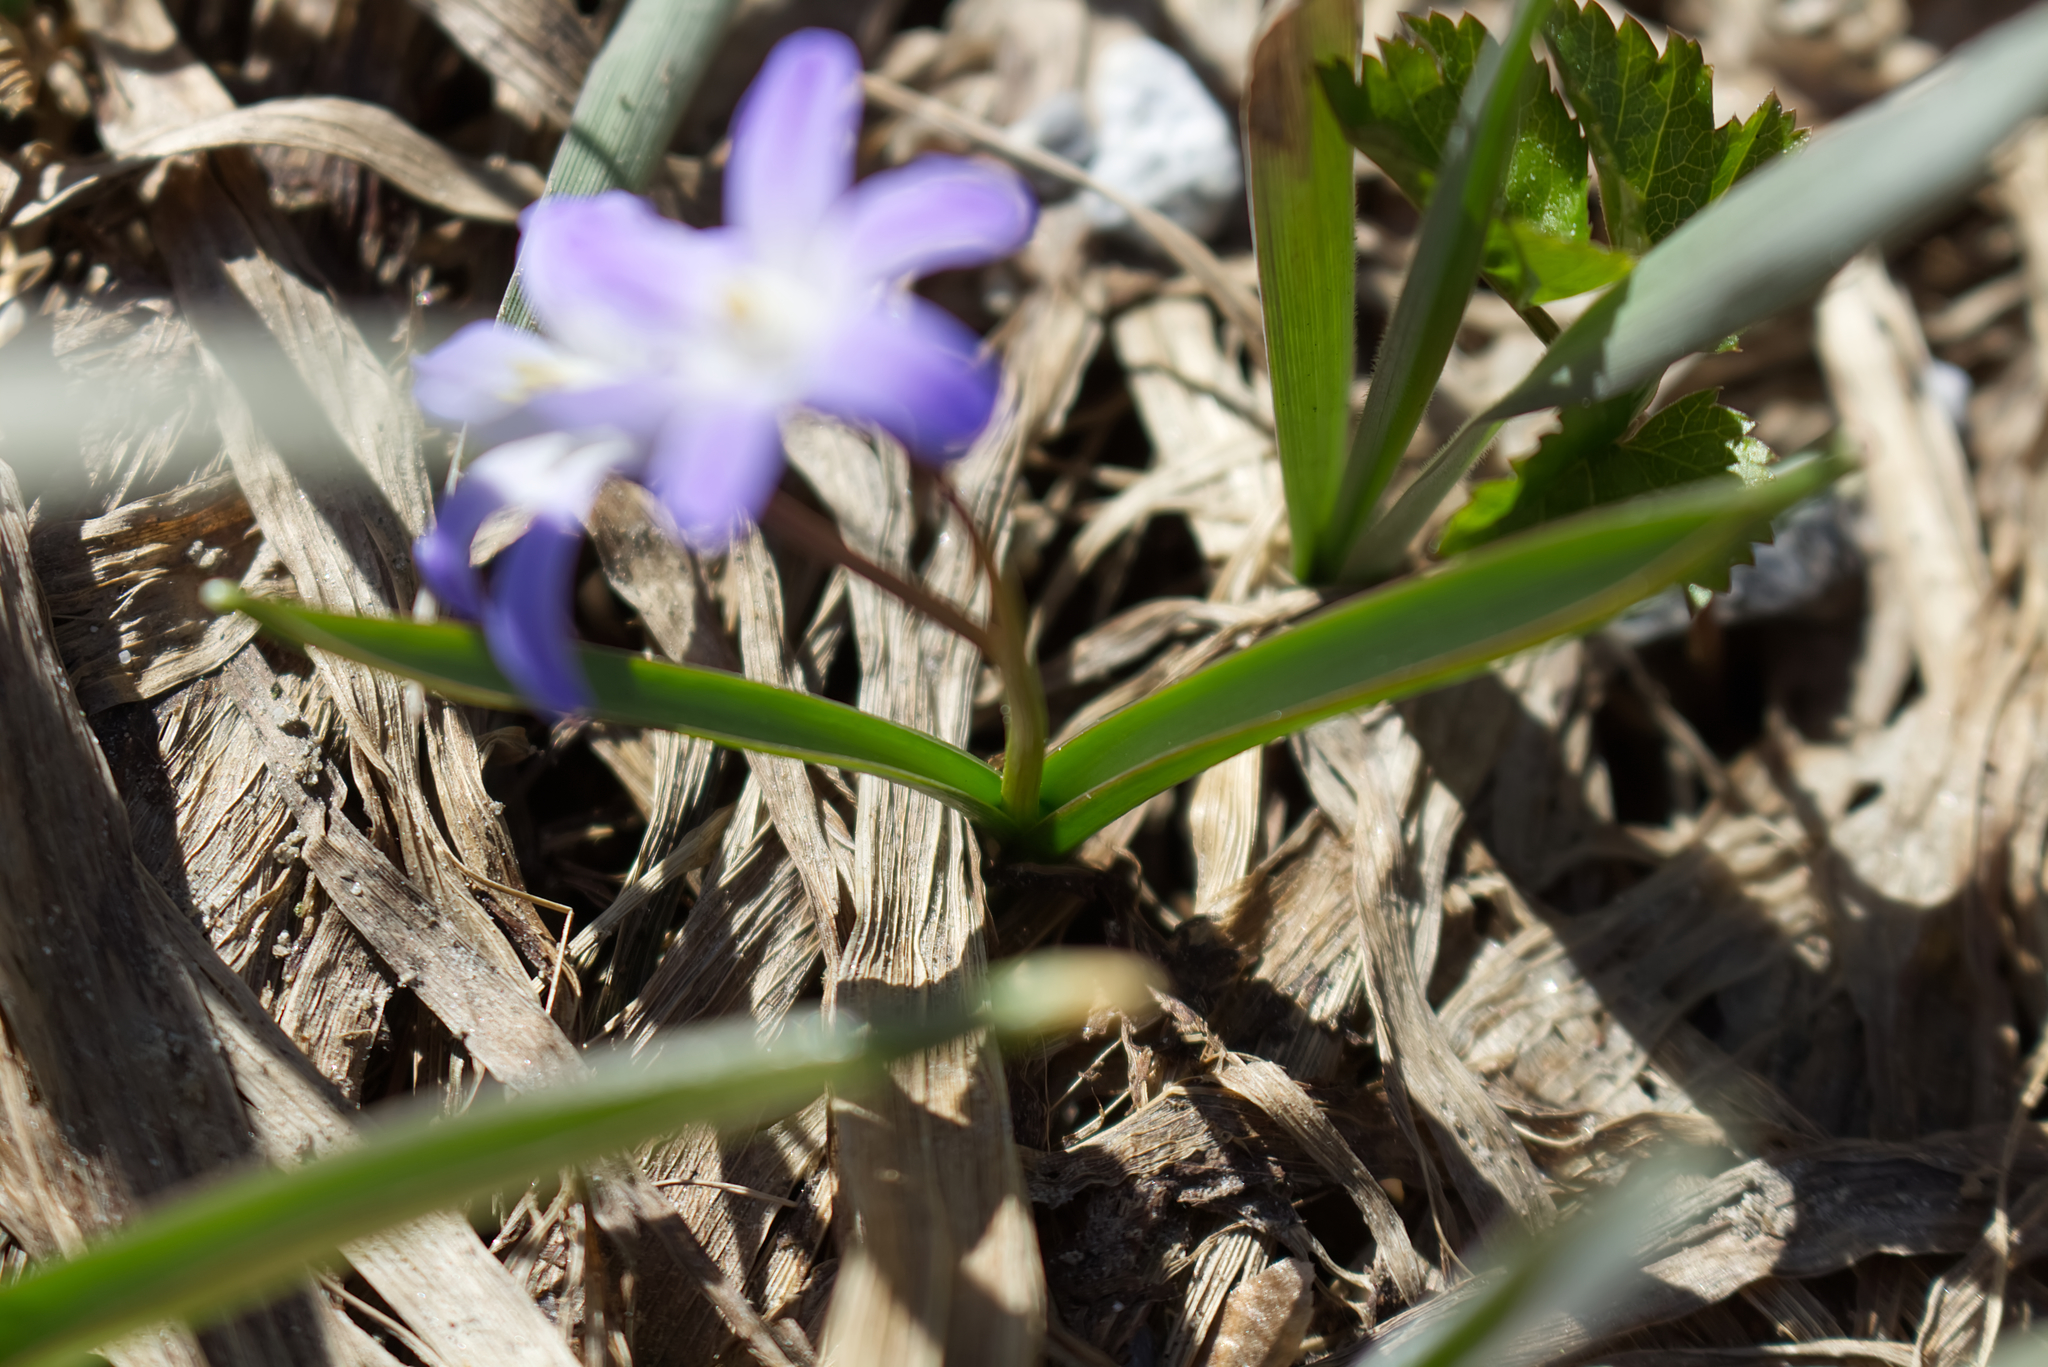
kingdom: Plantae
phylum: Tracheophyta
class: Liliopsida
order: Asparagales
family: Asparagaceae
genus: Scilla
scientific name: Scilla luciliae
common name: Boissier's glory-of-the-snow
